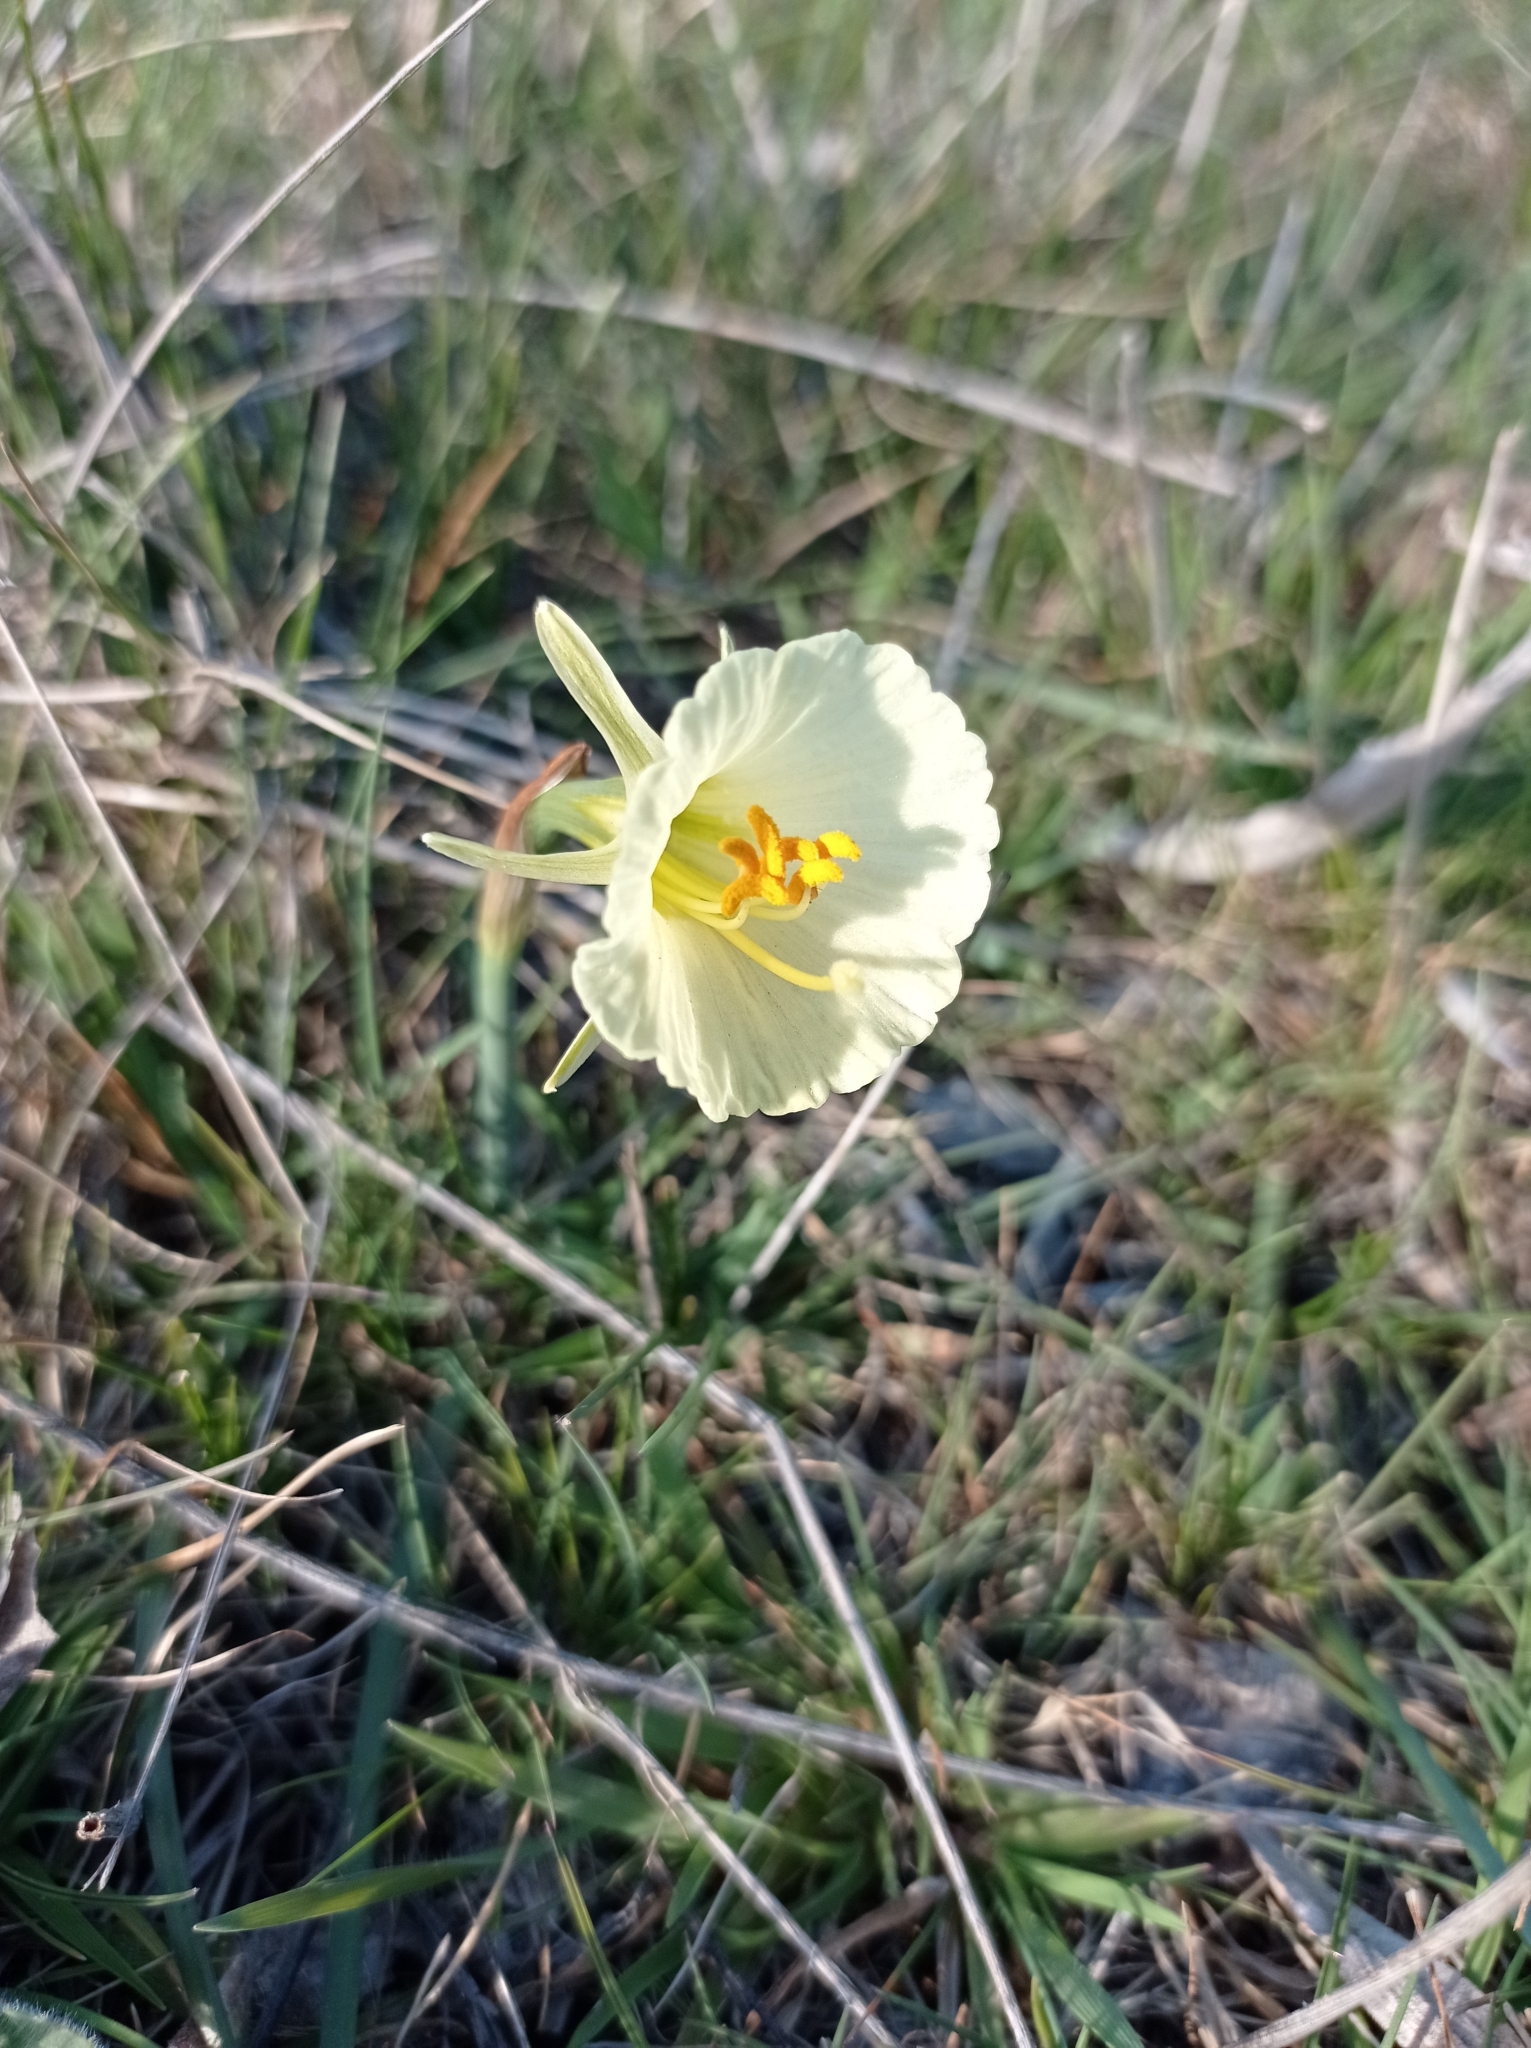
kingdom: Plantae
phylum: Tracheophyta
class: Liliopsida
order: Asparagales
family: Amaryllidaceae
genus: Narcissus
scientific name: Narcissus bulbocodium
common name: Hoop-petticoat daffodil
